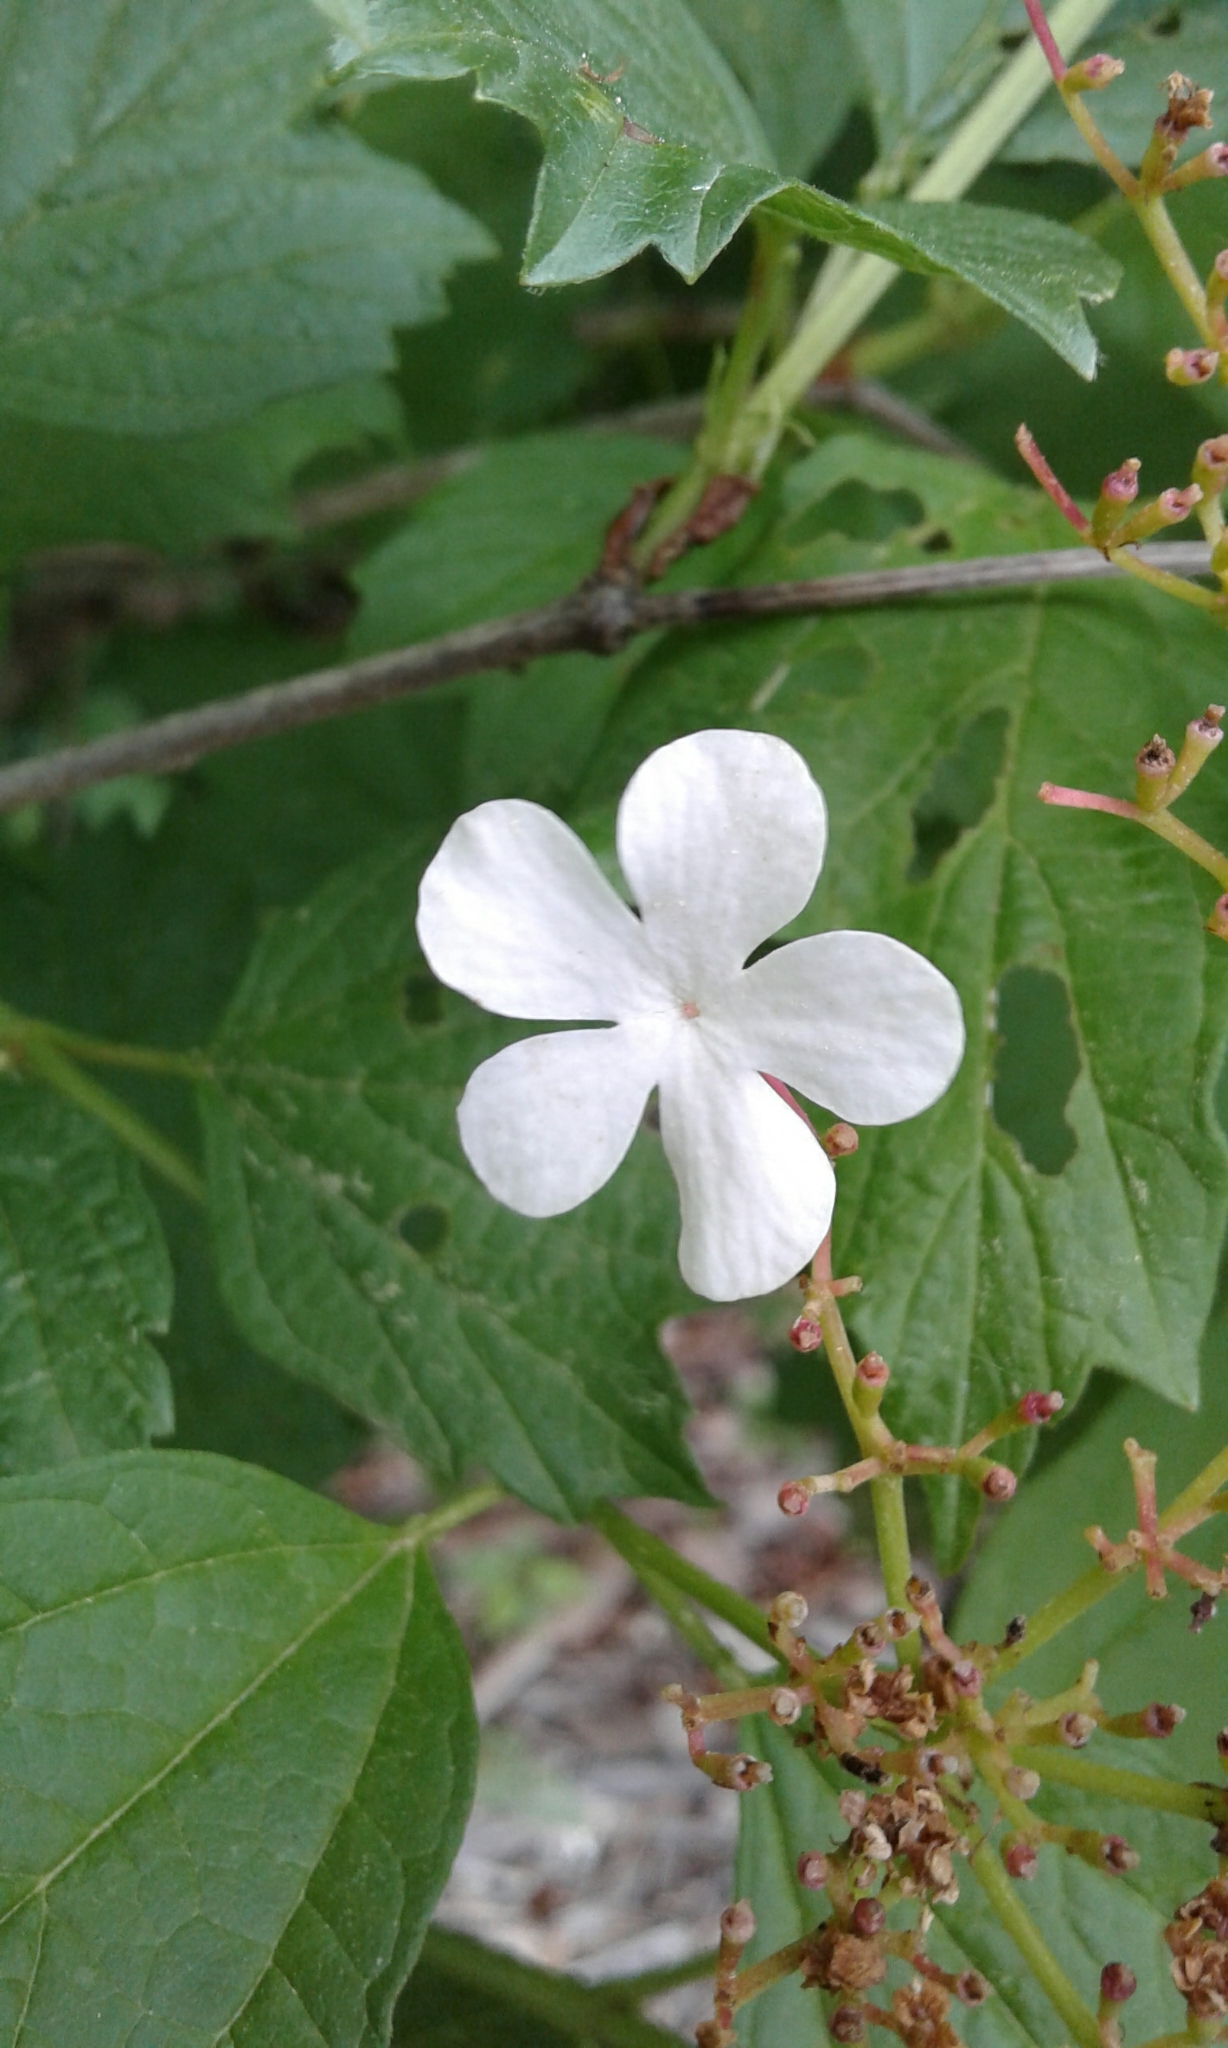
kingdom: Plantae
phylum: Tracheophyta
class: Magnoliopsida
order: Dipsacales
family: Viburnaceae
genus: Viburnum
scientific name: Viburnum opulus
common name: Guelder-rose
